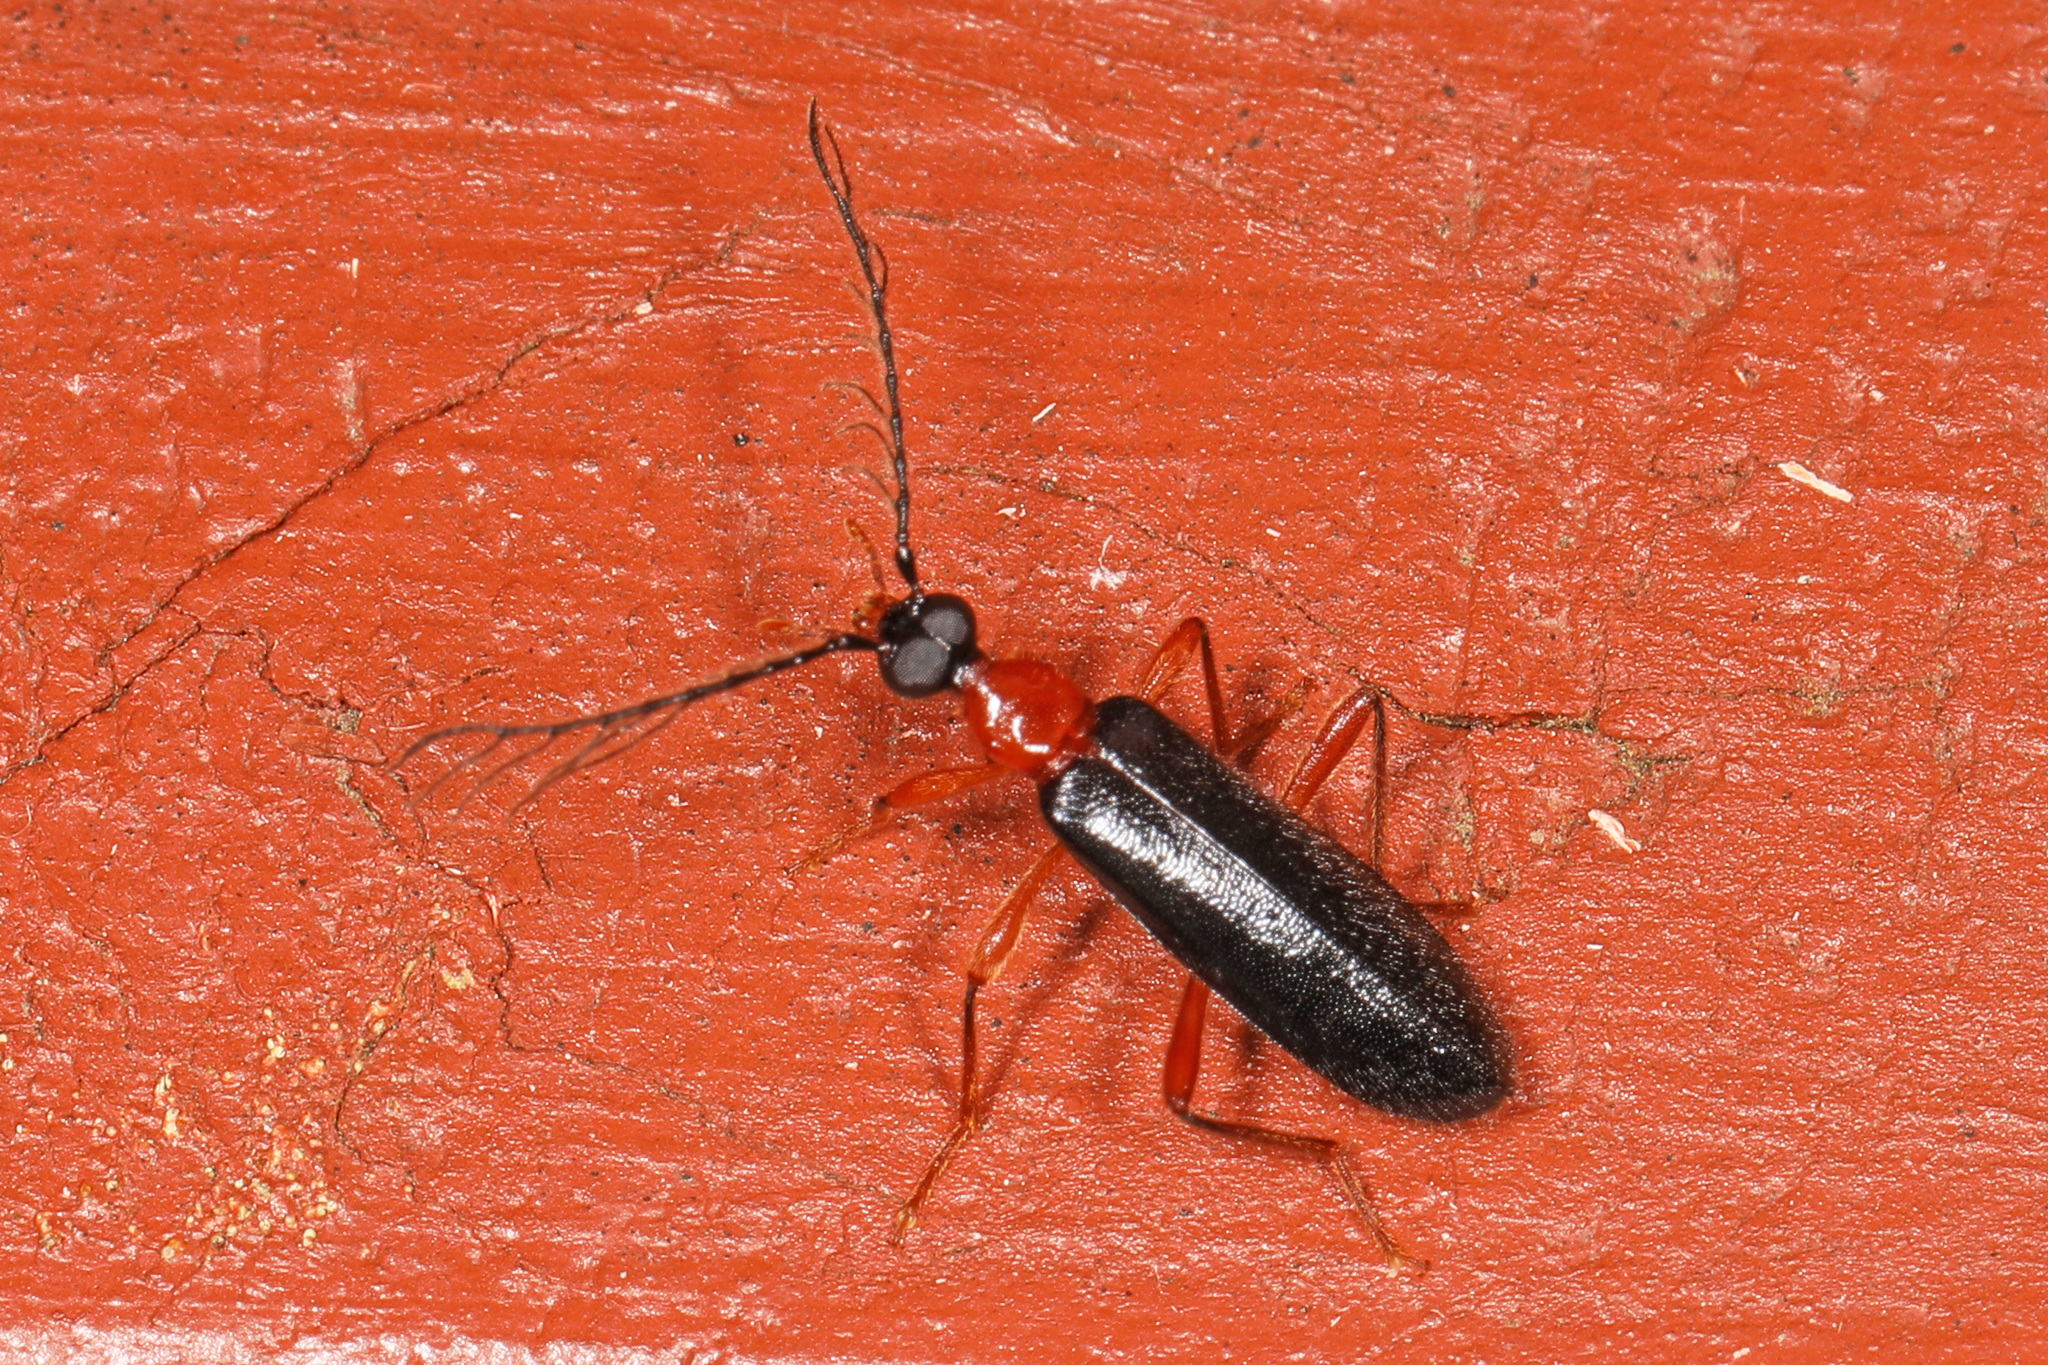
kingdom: Animalia
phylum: Arthropoda
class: Insecta
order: Coleoptera
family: Pyrochroidae
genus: Dendroides
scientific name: Dendroides canadensis
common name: Canada fire-colored beetle
